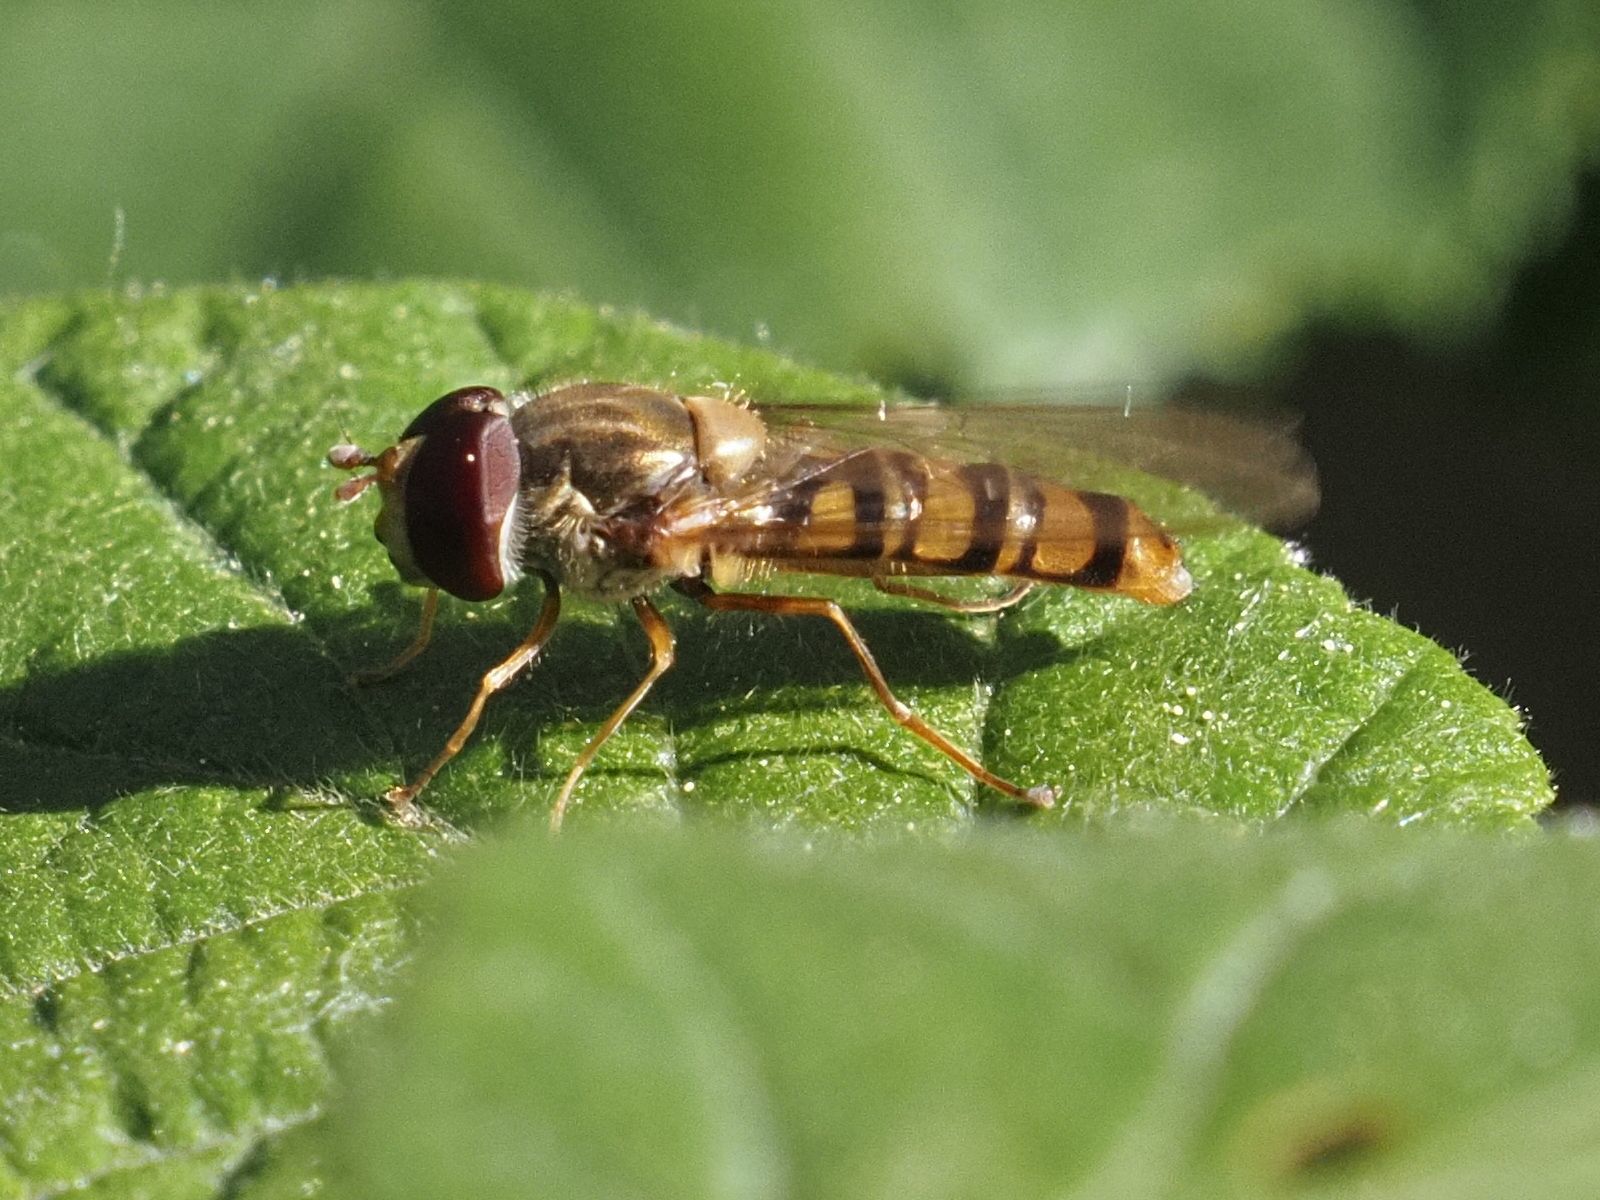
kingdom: Animalia
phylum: Arthropoda
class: Insecta
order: Diptera
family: Syrphidae
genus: Episyrphus
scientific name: Episyrphus balteatus
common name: Marmalade hoverfly
